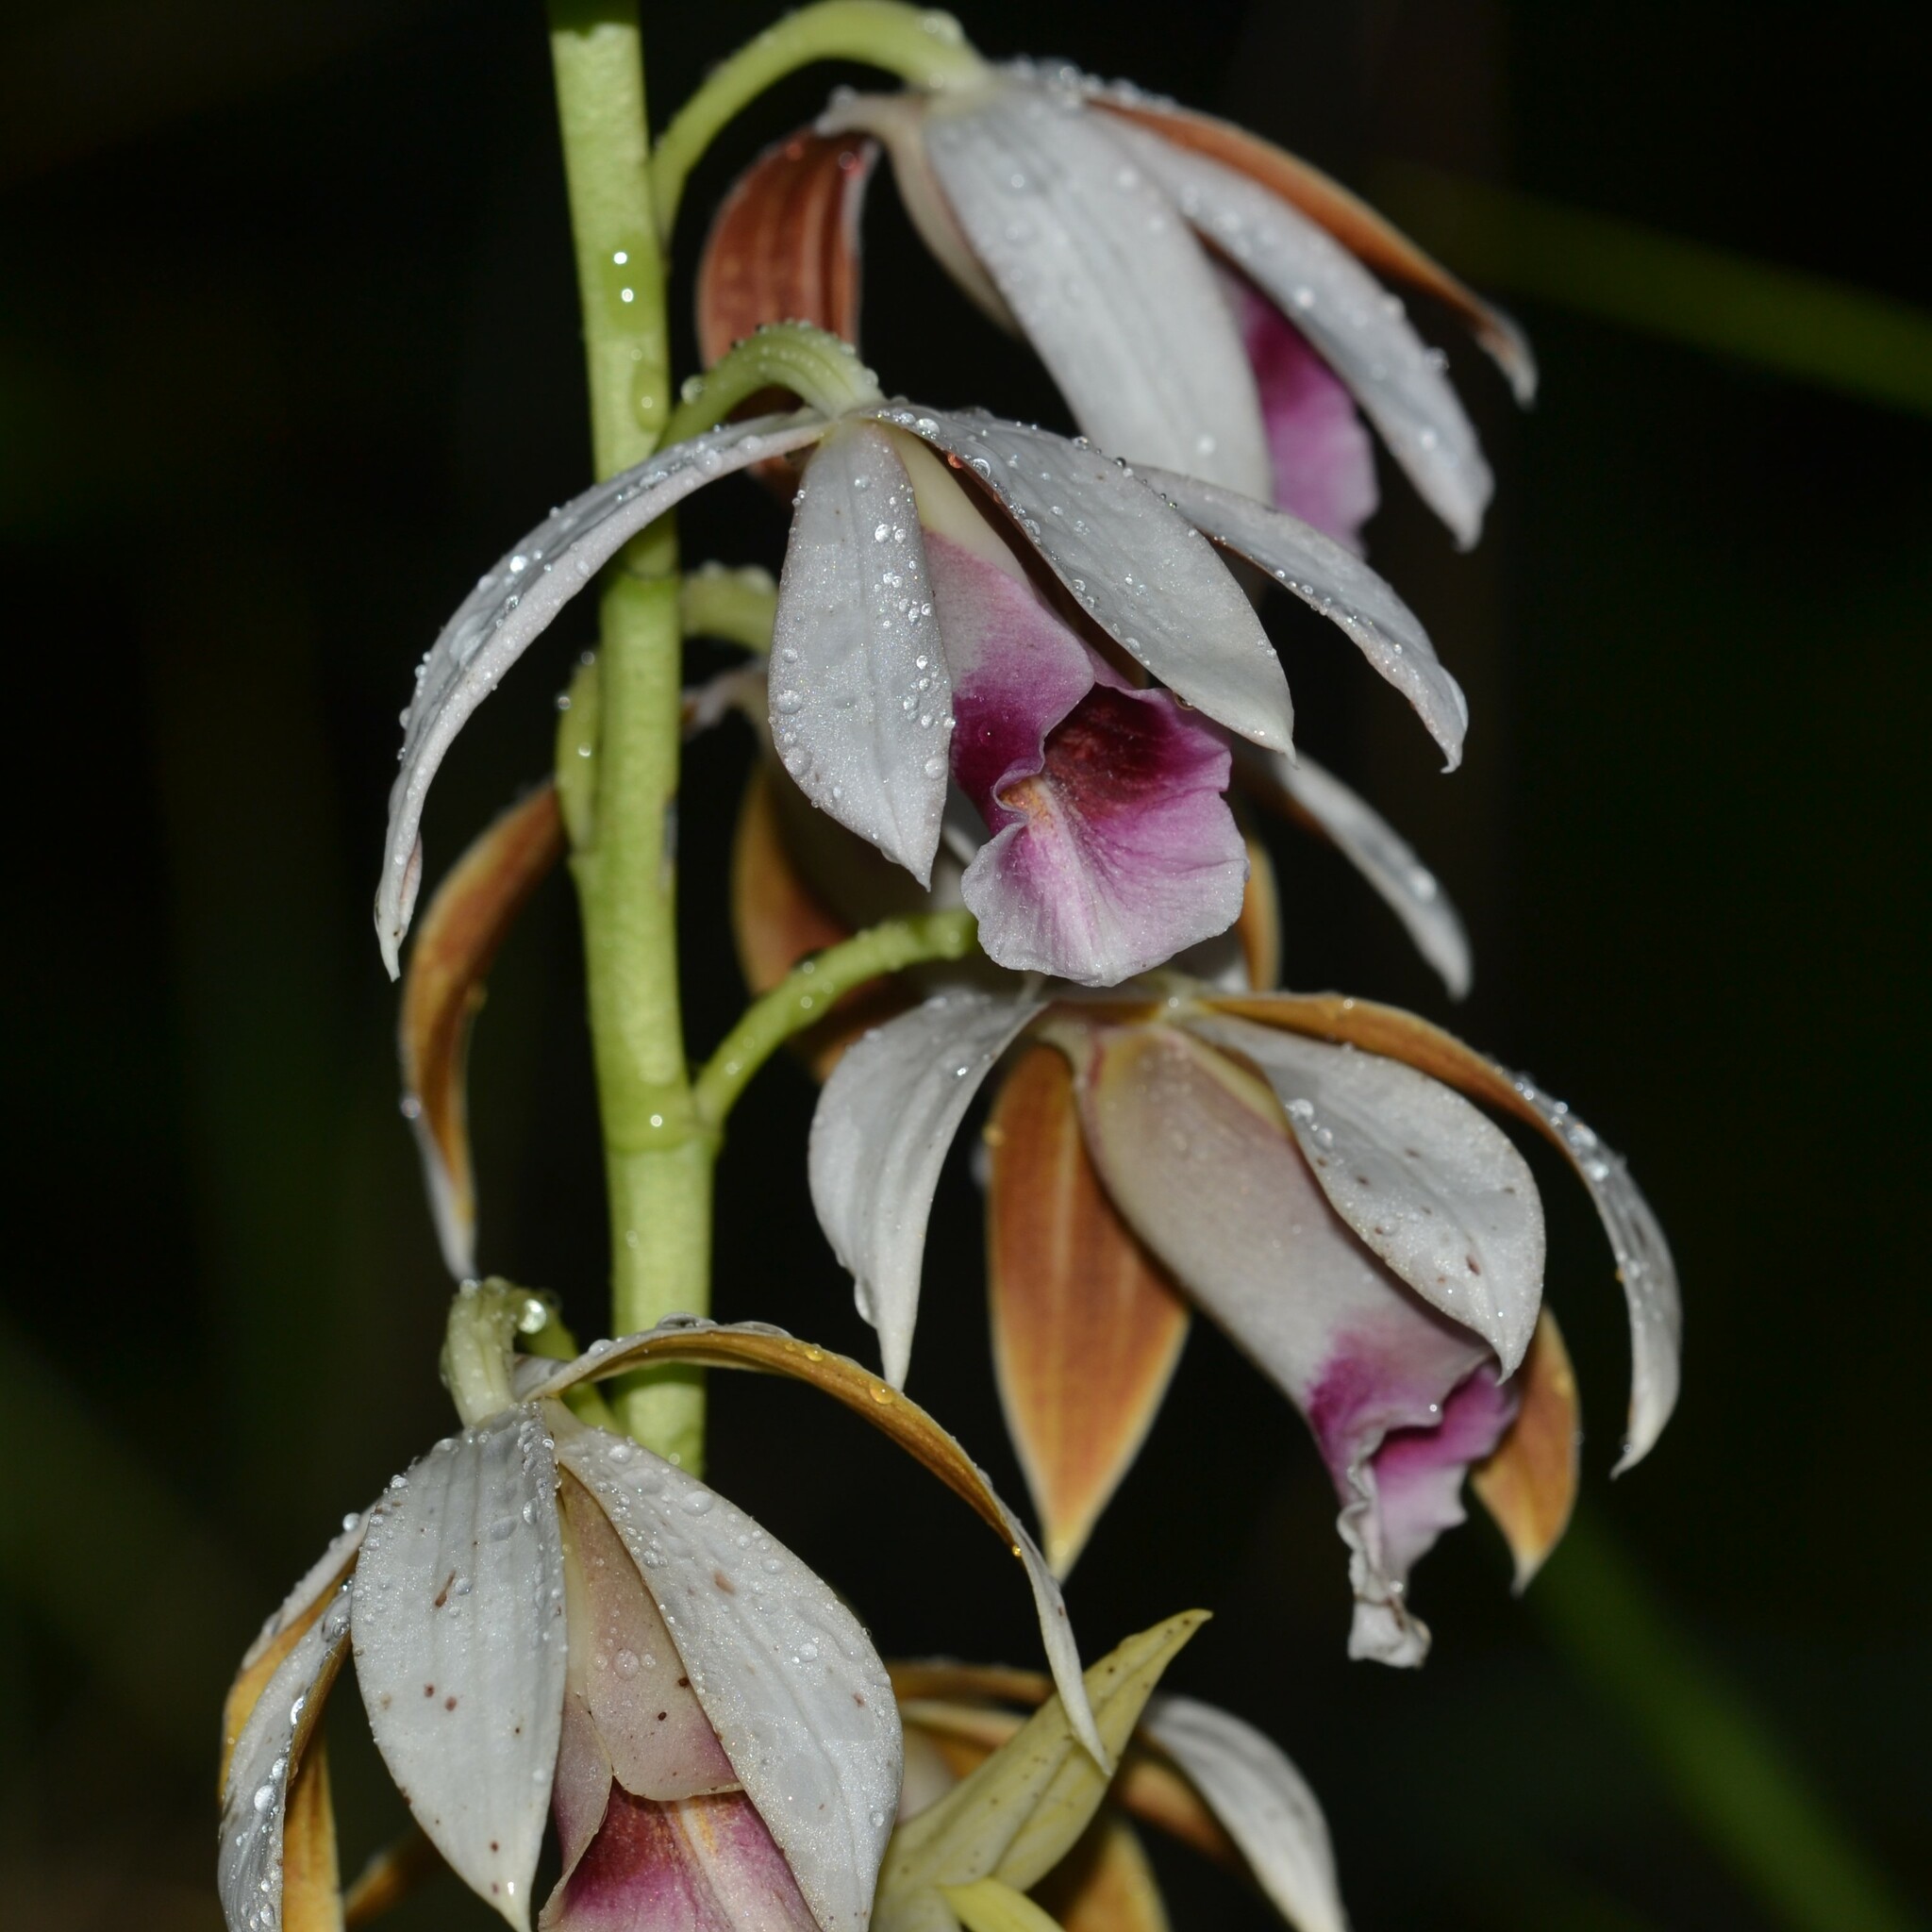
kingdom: Plantae
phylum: Tracheophyta
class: Liliopsida
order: Asparagales
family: Orchidaceae
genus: Calanthe
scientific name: Calanthe tankervilleae
